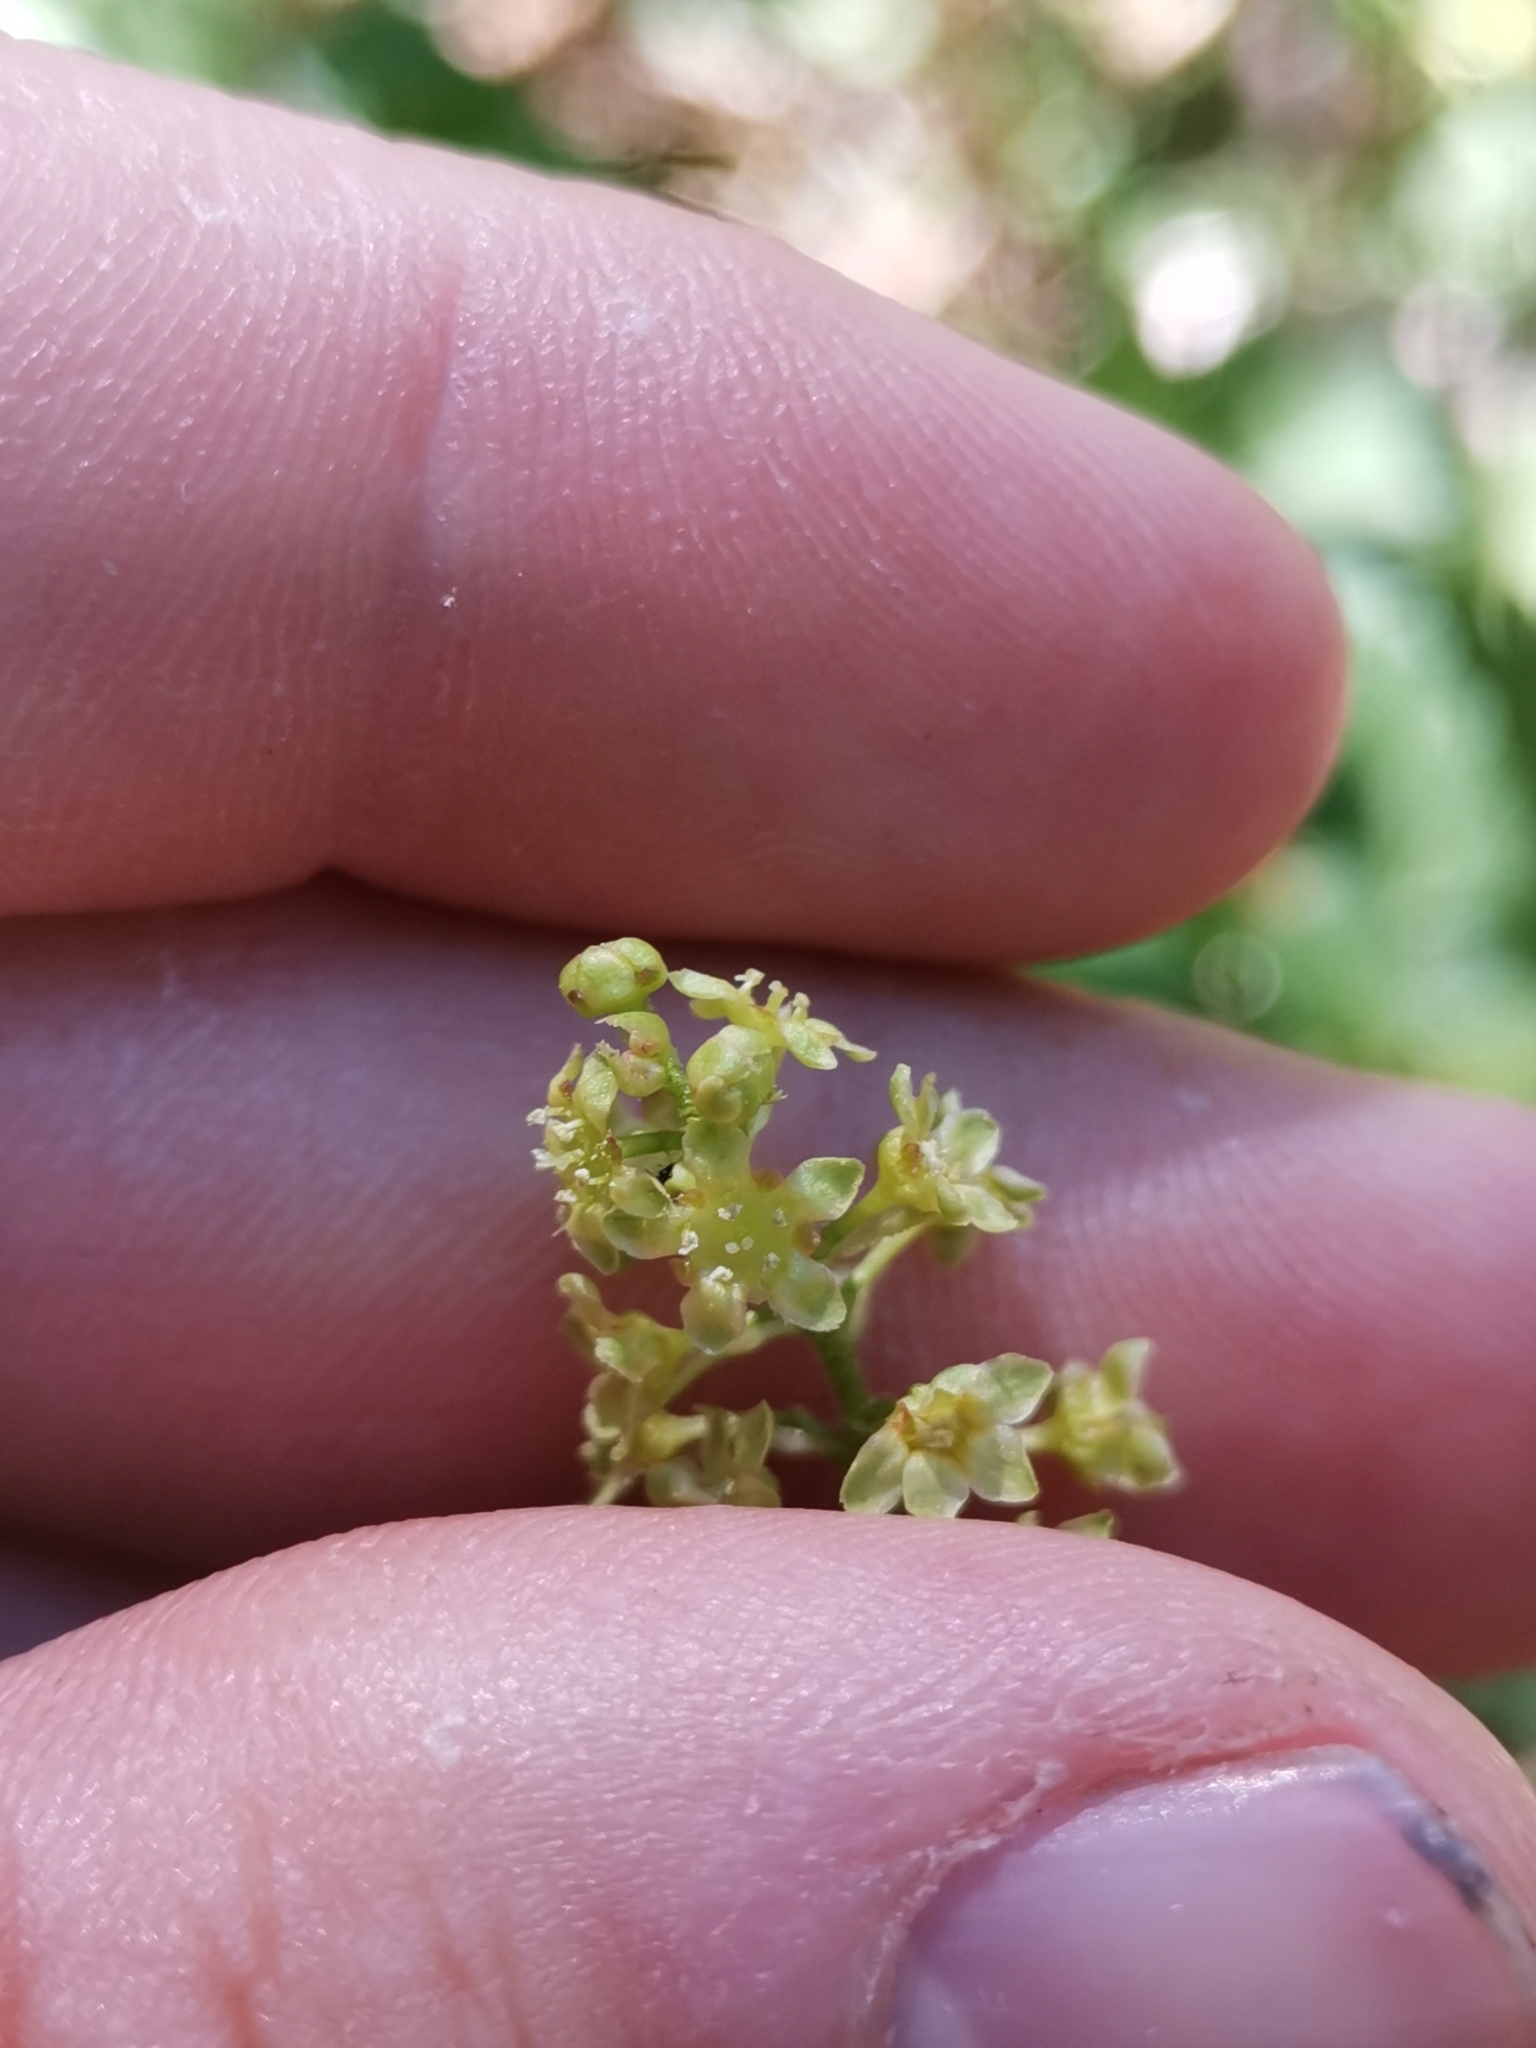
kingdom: Plantae
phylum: Tracheophyta
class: Magnoliopsida
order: Saxifragales
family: Grossulariaceae
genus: Ribes
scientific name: Ribes alpinum
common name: Alpine currant
